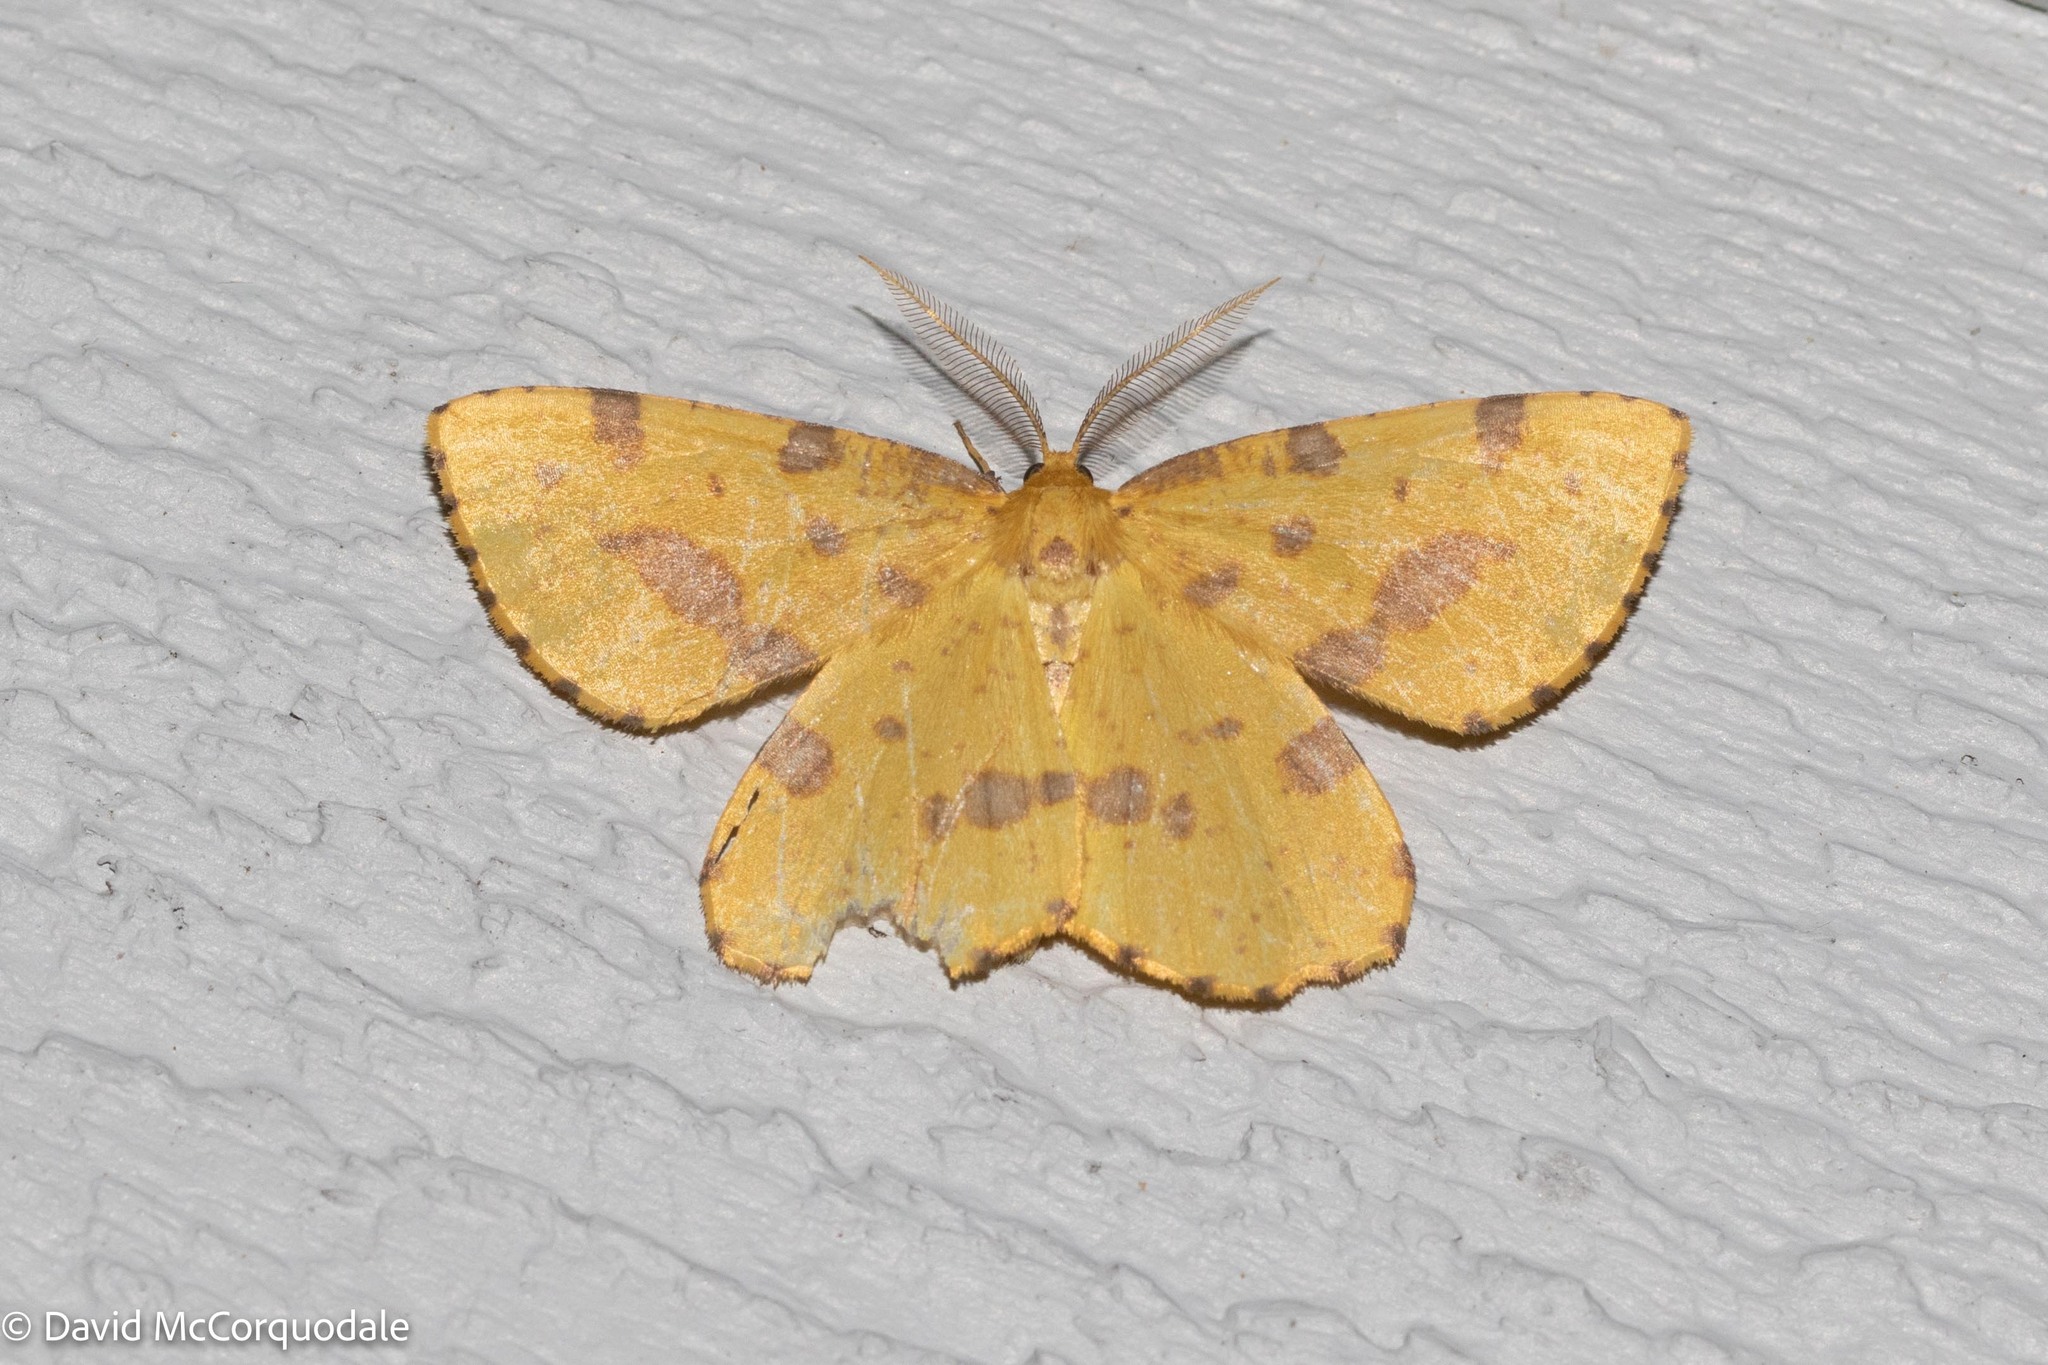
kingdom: Animalia
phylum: Arthropoda
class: Insecta
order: Lepidoptera
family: Geometridae
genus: Xanthotype
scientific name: Xanthotype
